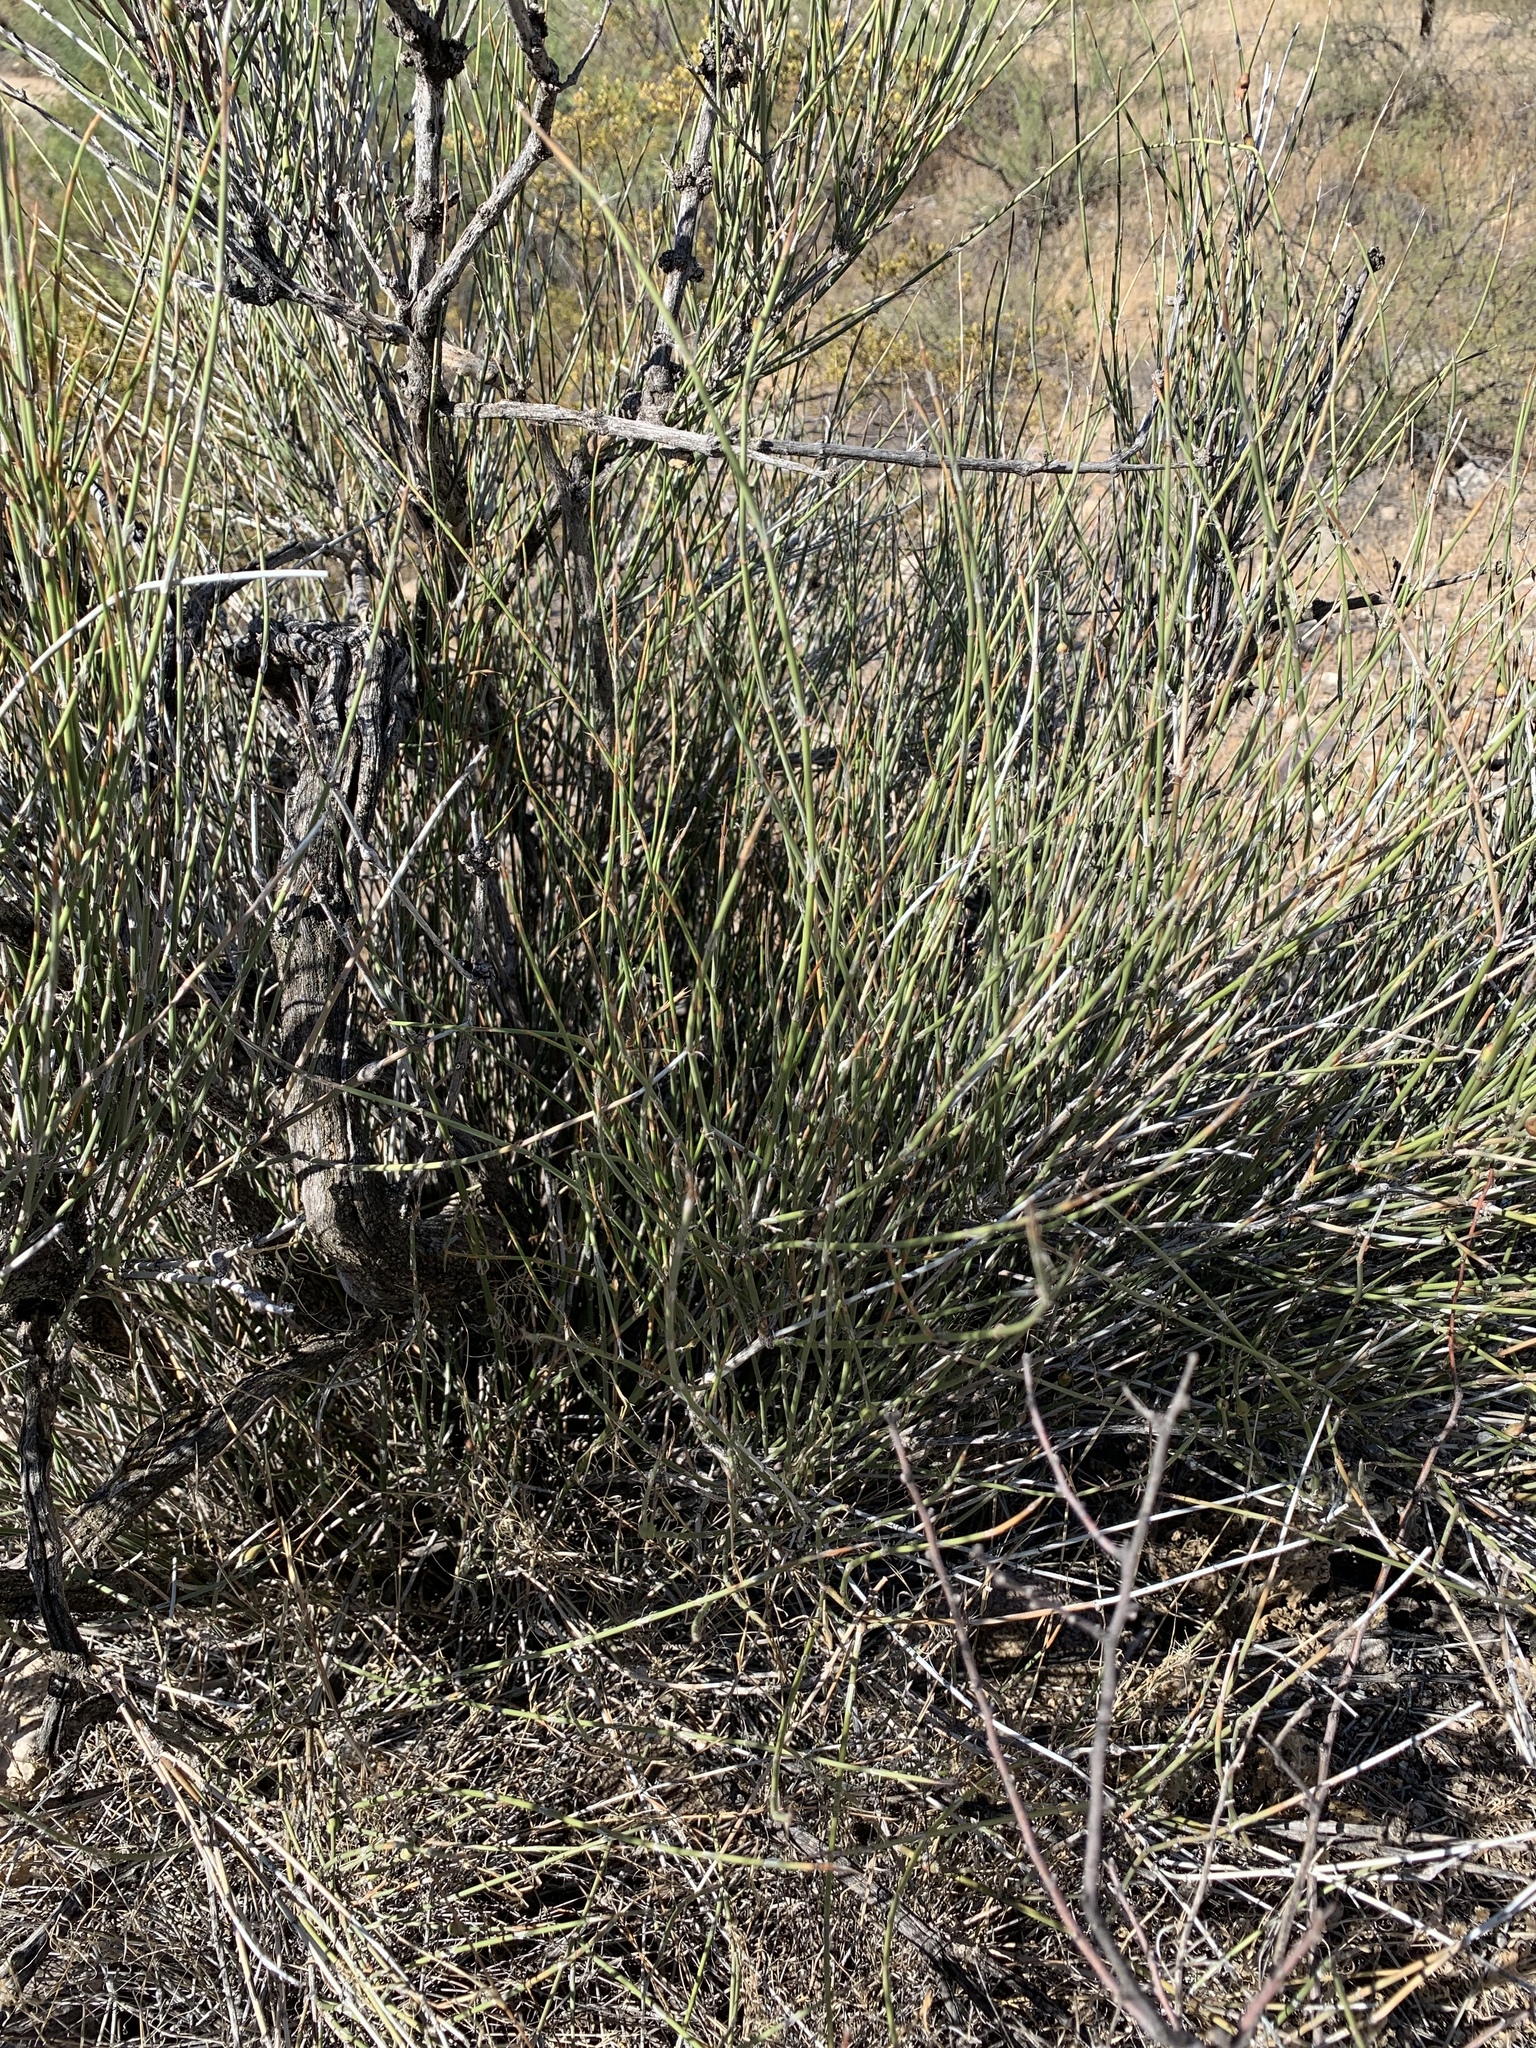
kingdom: Plantae
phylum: Tracheophyta
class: Gnetopsida
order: Ephedrales
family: Ephedraceae
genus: Ephedra
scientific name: Ephedra trifurca
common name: Mexican-tea
